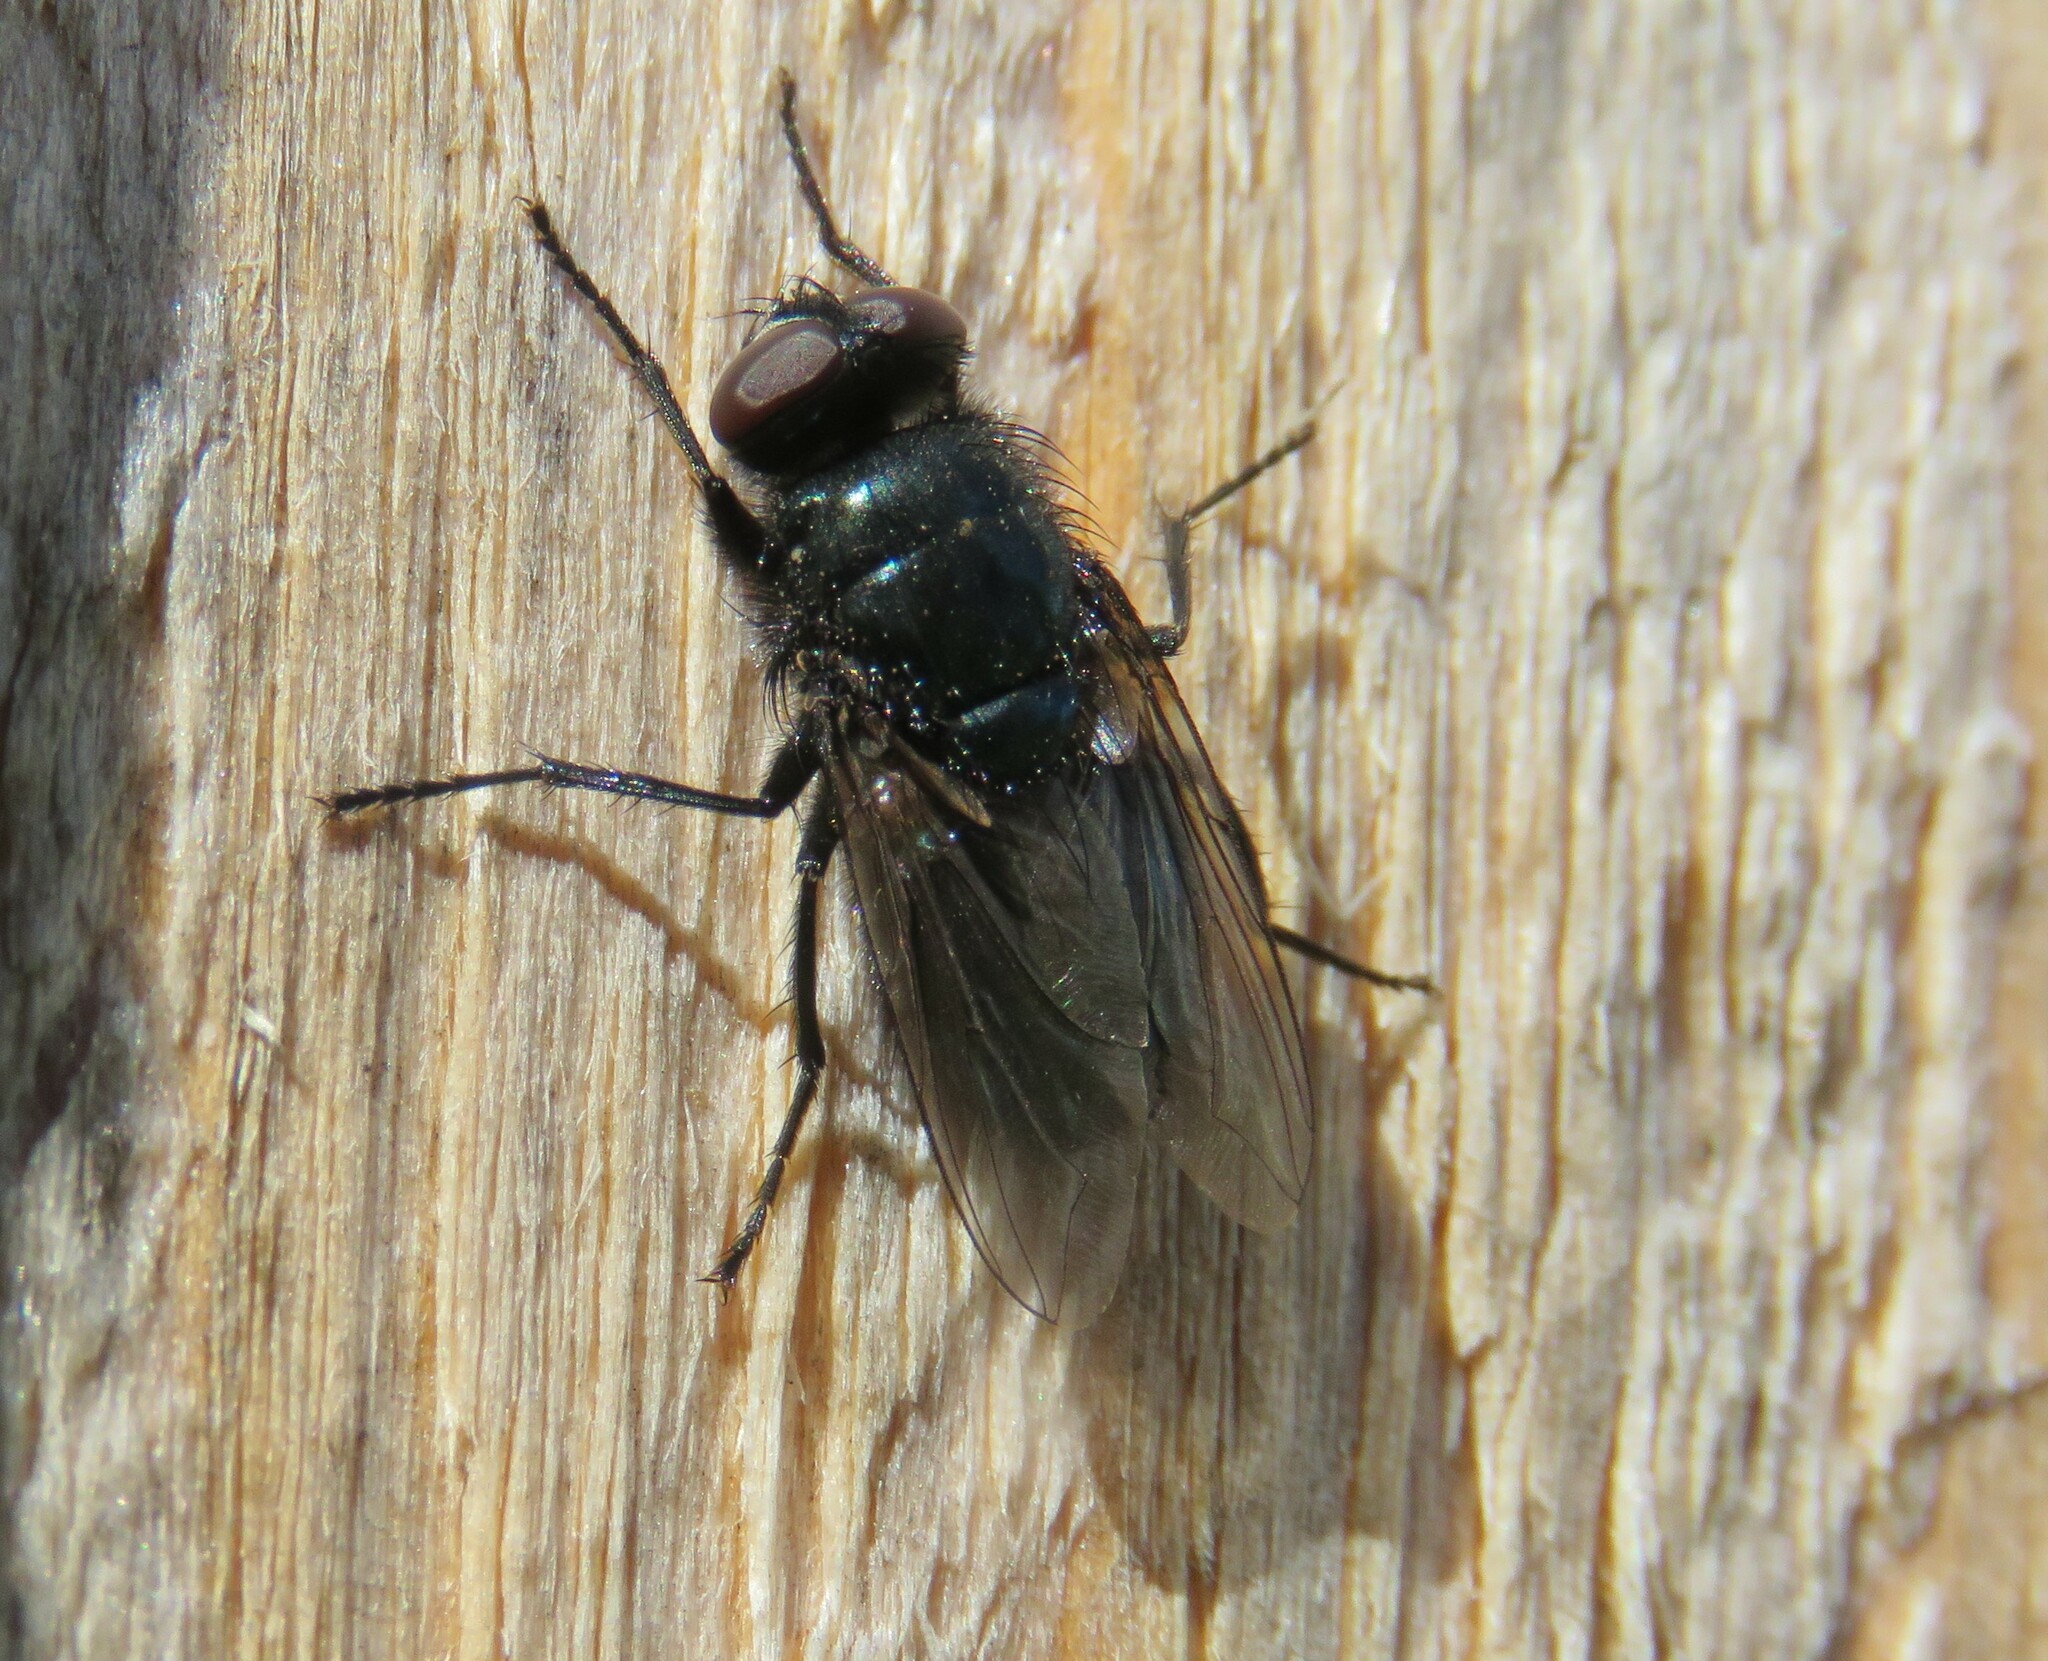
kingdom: Animalia
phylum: Arthropoda
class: Insecta
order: Diptera
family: Calliphoridae
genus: Protophormia
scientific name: Protophormia terraenovae
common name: Blackbottle
